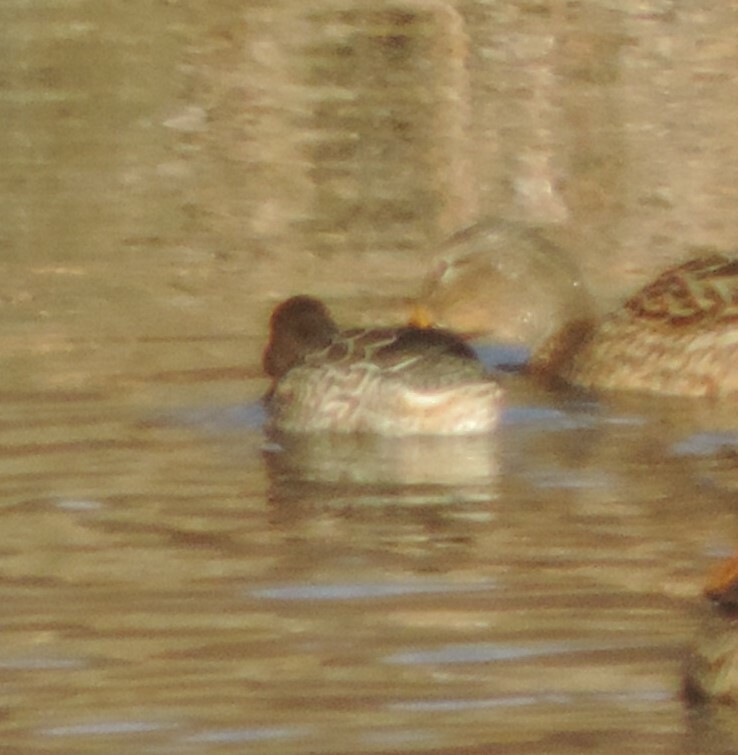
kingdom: Animalia
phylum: Chordata
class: Aves
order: Anseriformes
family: Anatidae
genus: Anas
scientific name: Anas crecca
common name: Eurasian teal
